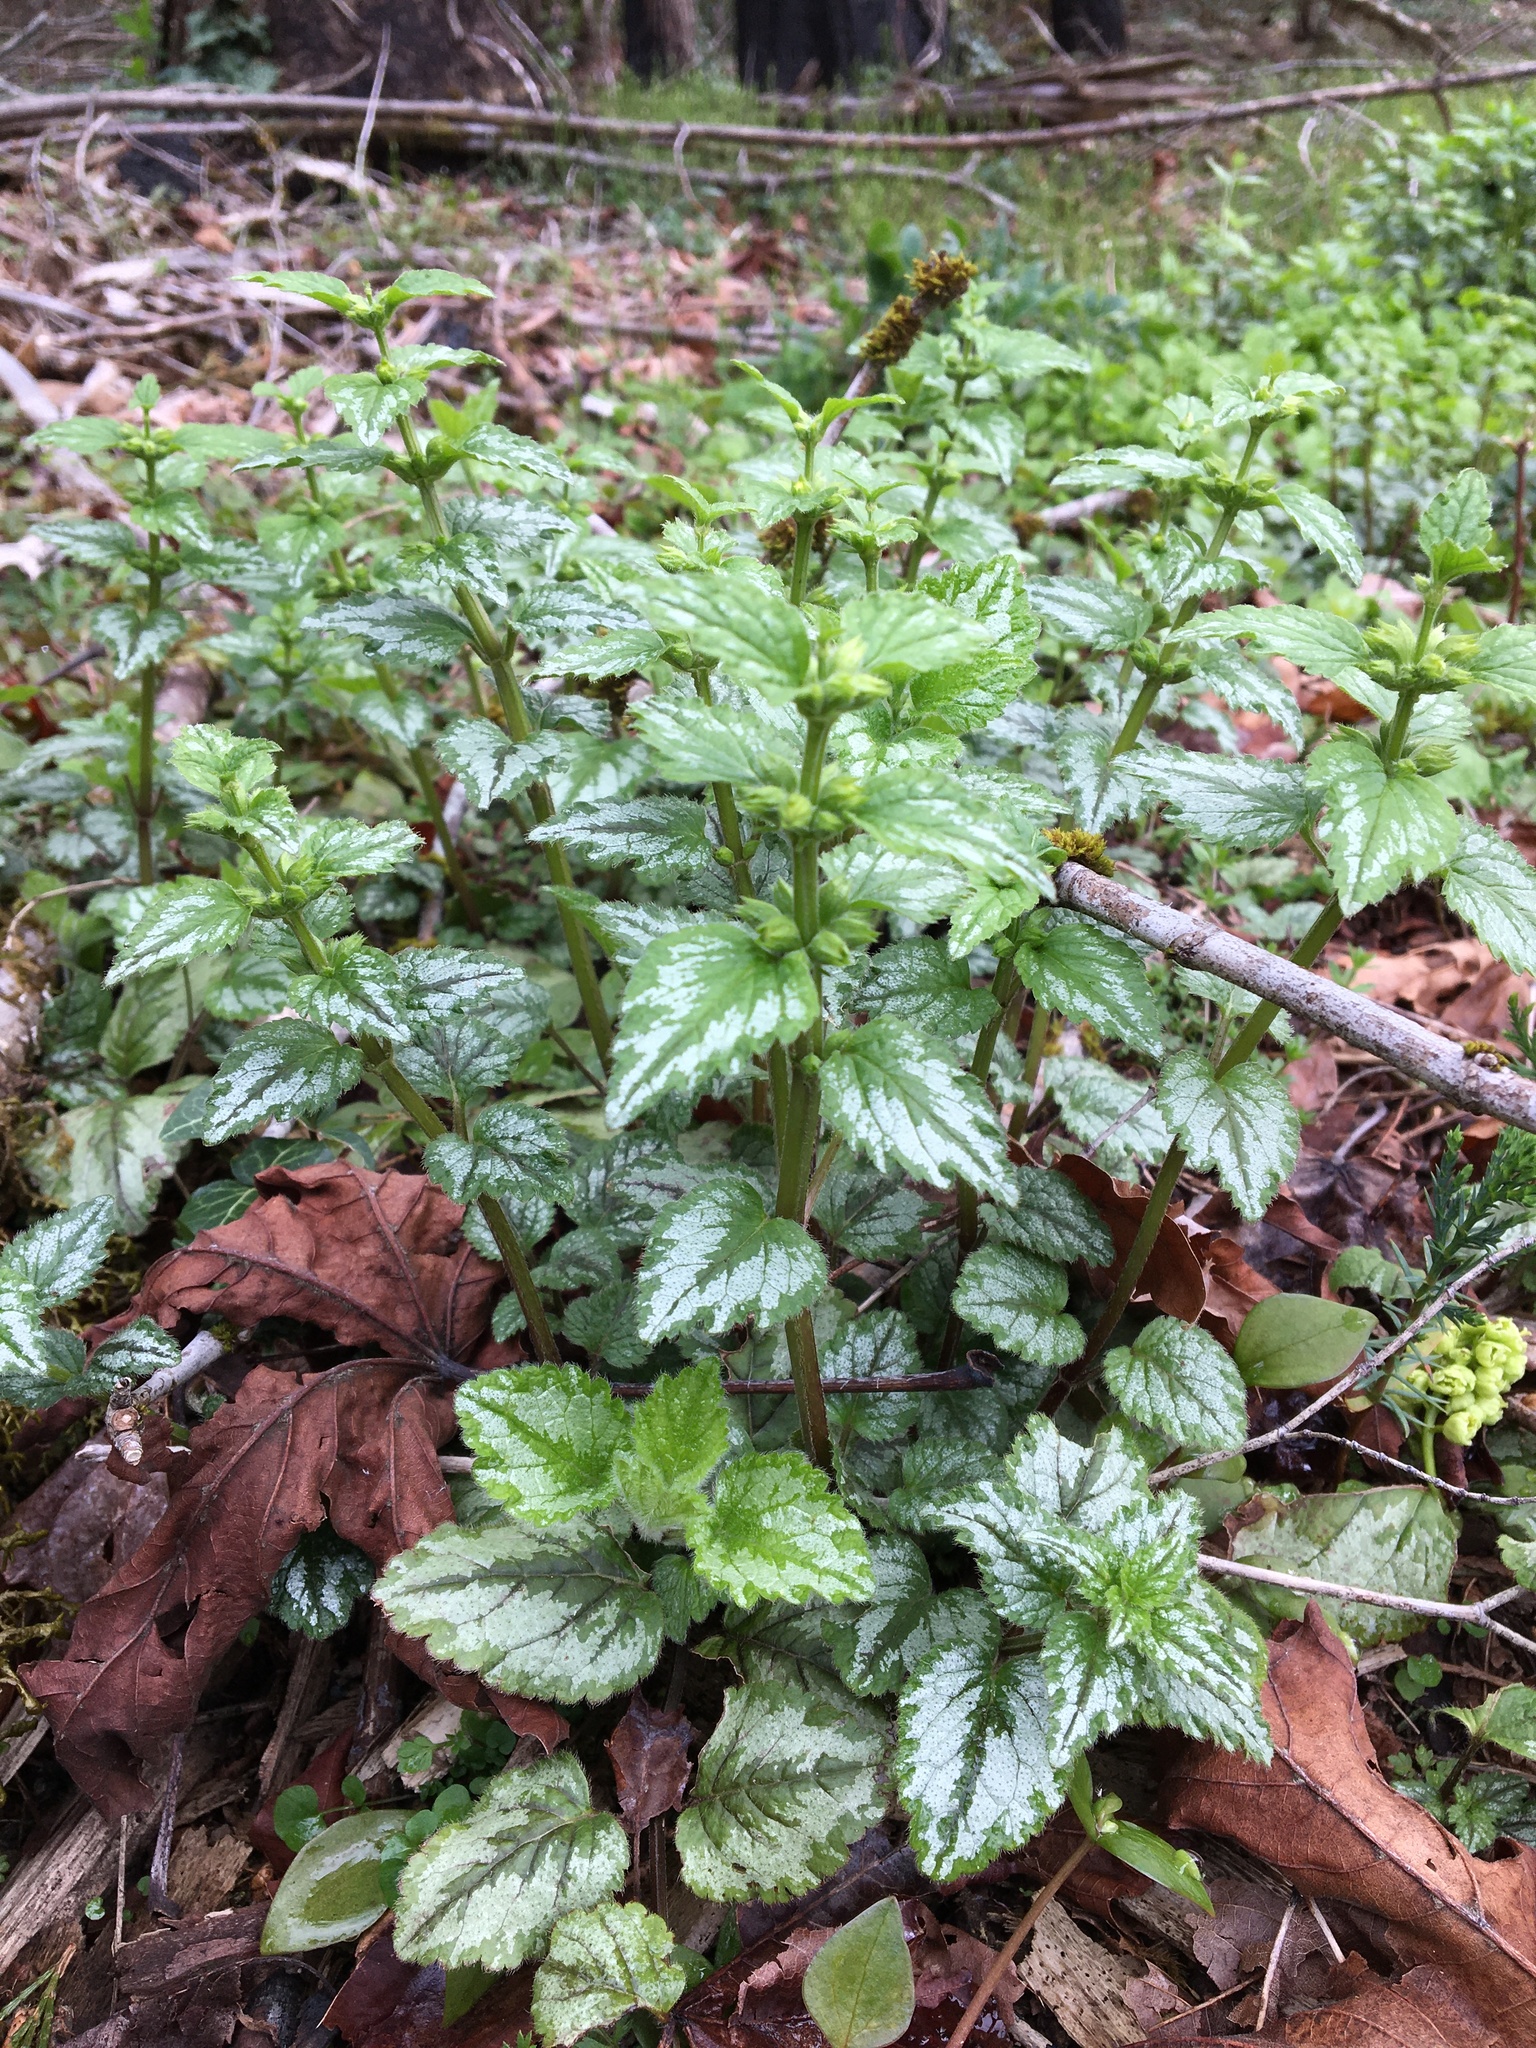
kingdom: Plantae
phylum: Tracheophyta
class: Magnoliopsida
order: Lamiales
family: Lamiaceae
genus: Lamium
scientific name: Lamium galeobdolon
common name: Yellow archangel
